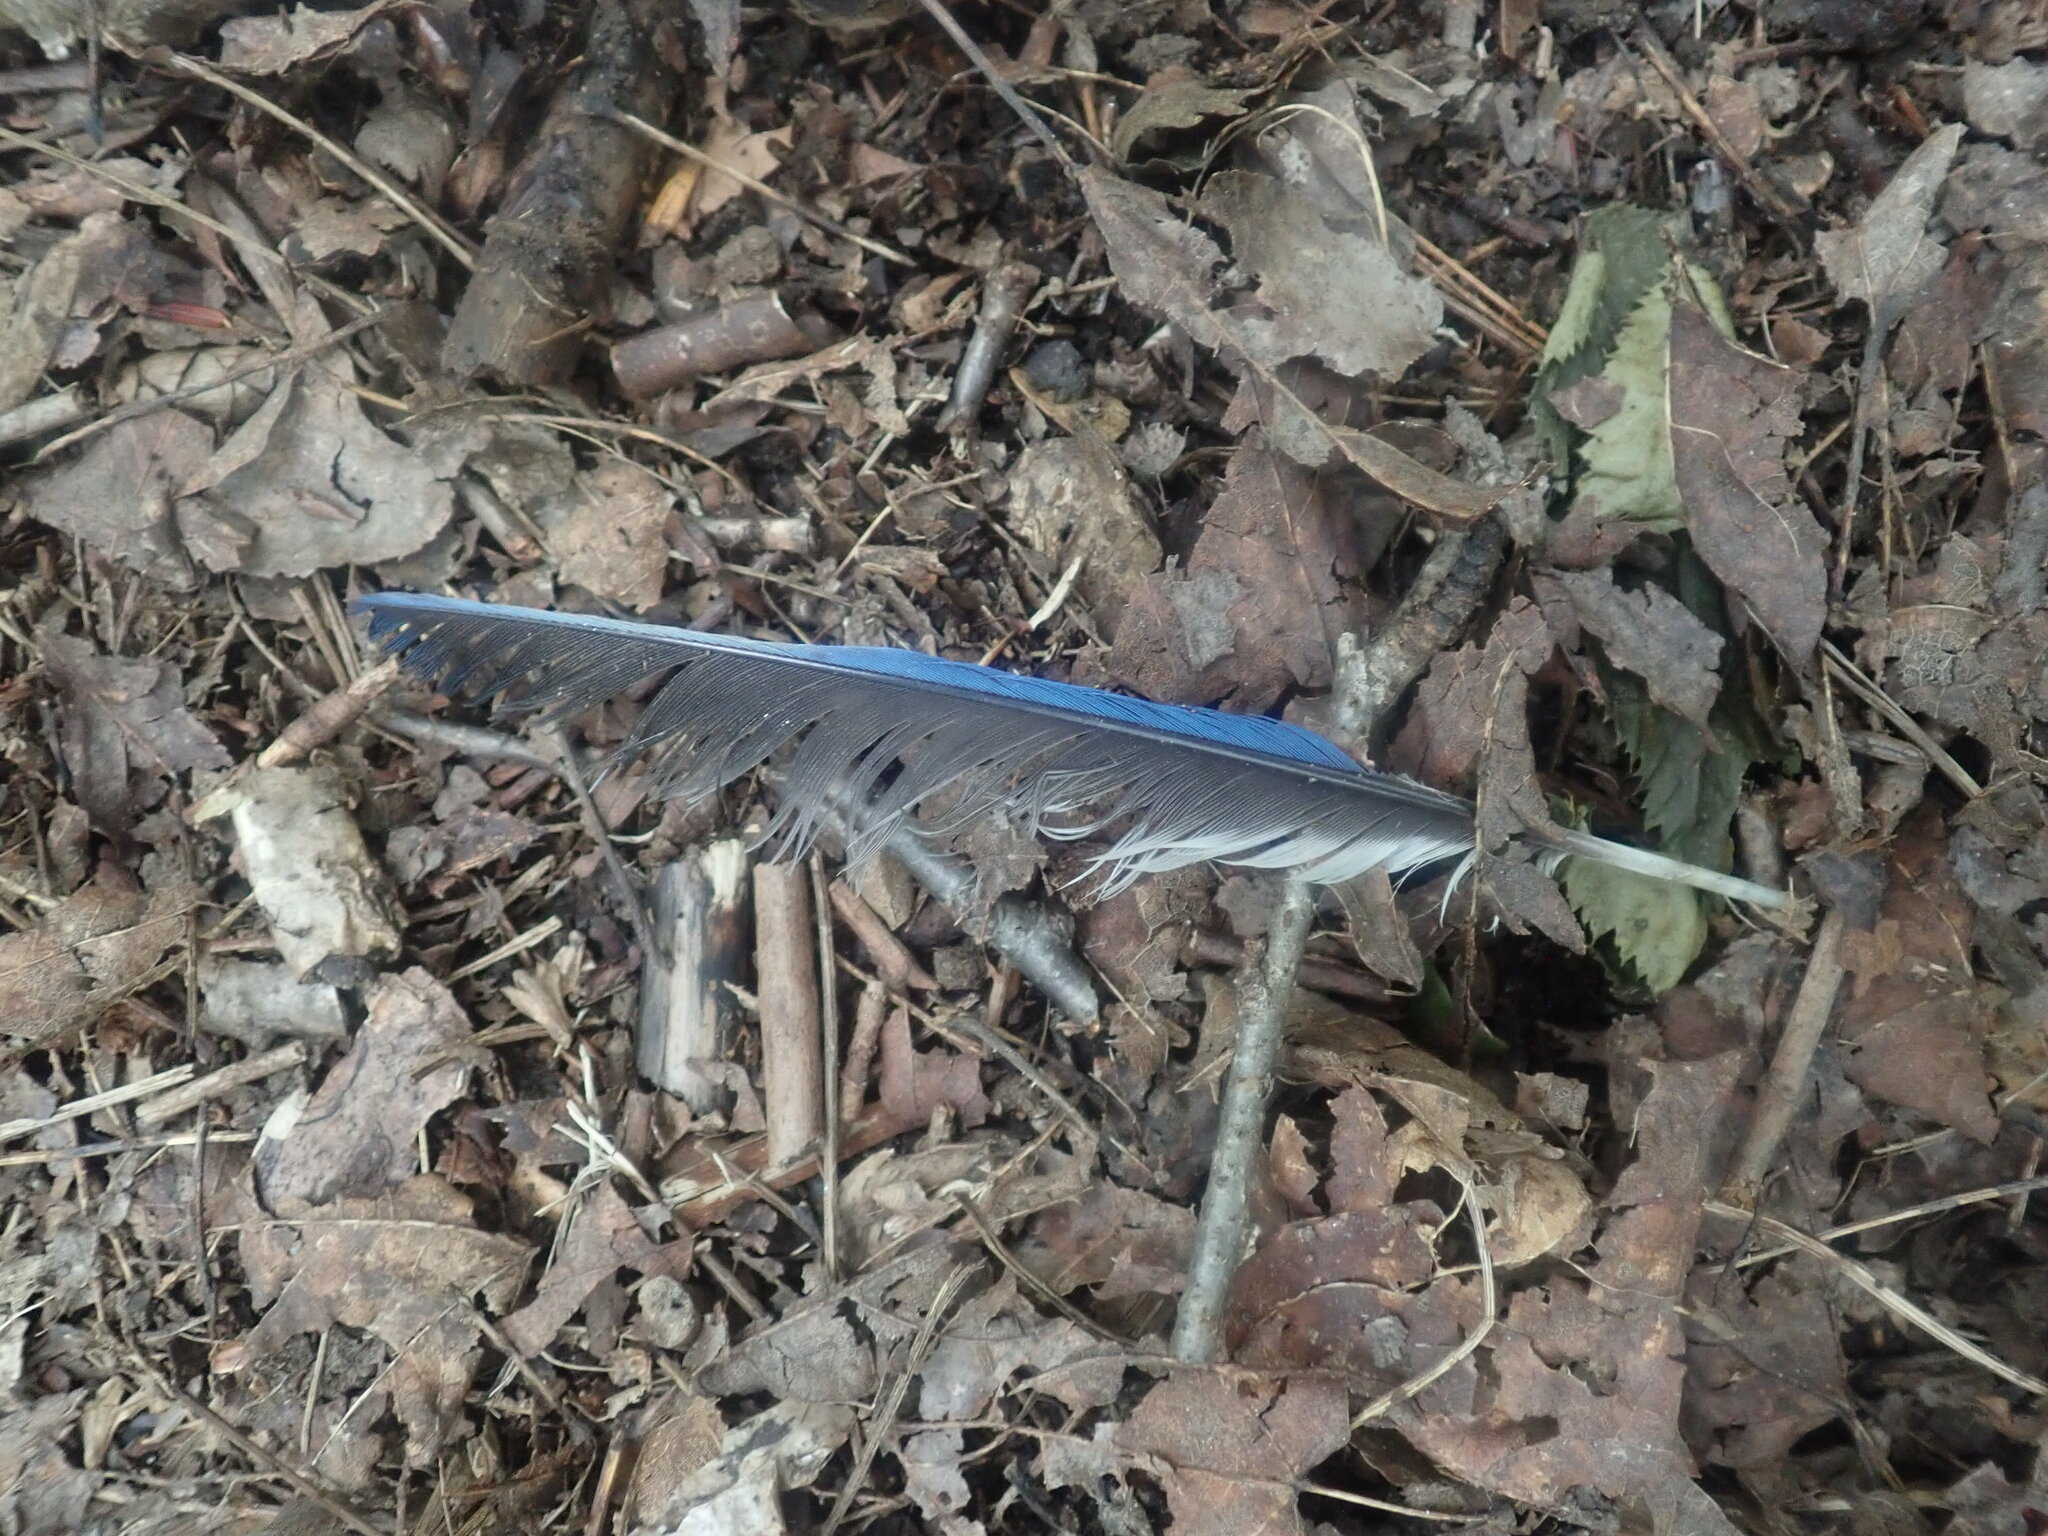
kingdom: Animalia
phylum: Chordata
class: Aves
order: Passeriformes
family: Corvidae
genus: Cyanocitta
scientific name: Cyanocitta cristata
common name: Blue jay
